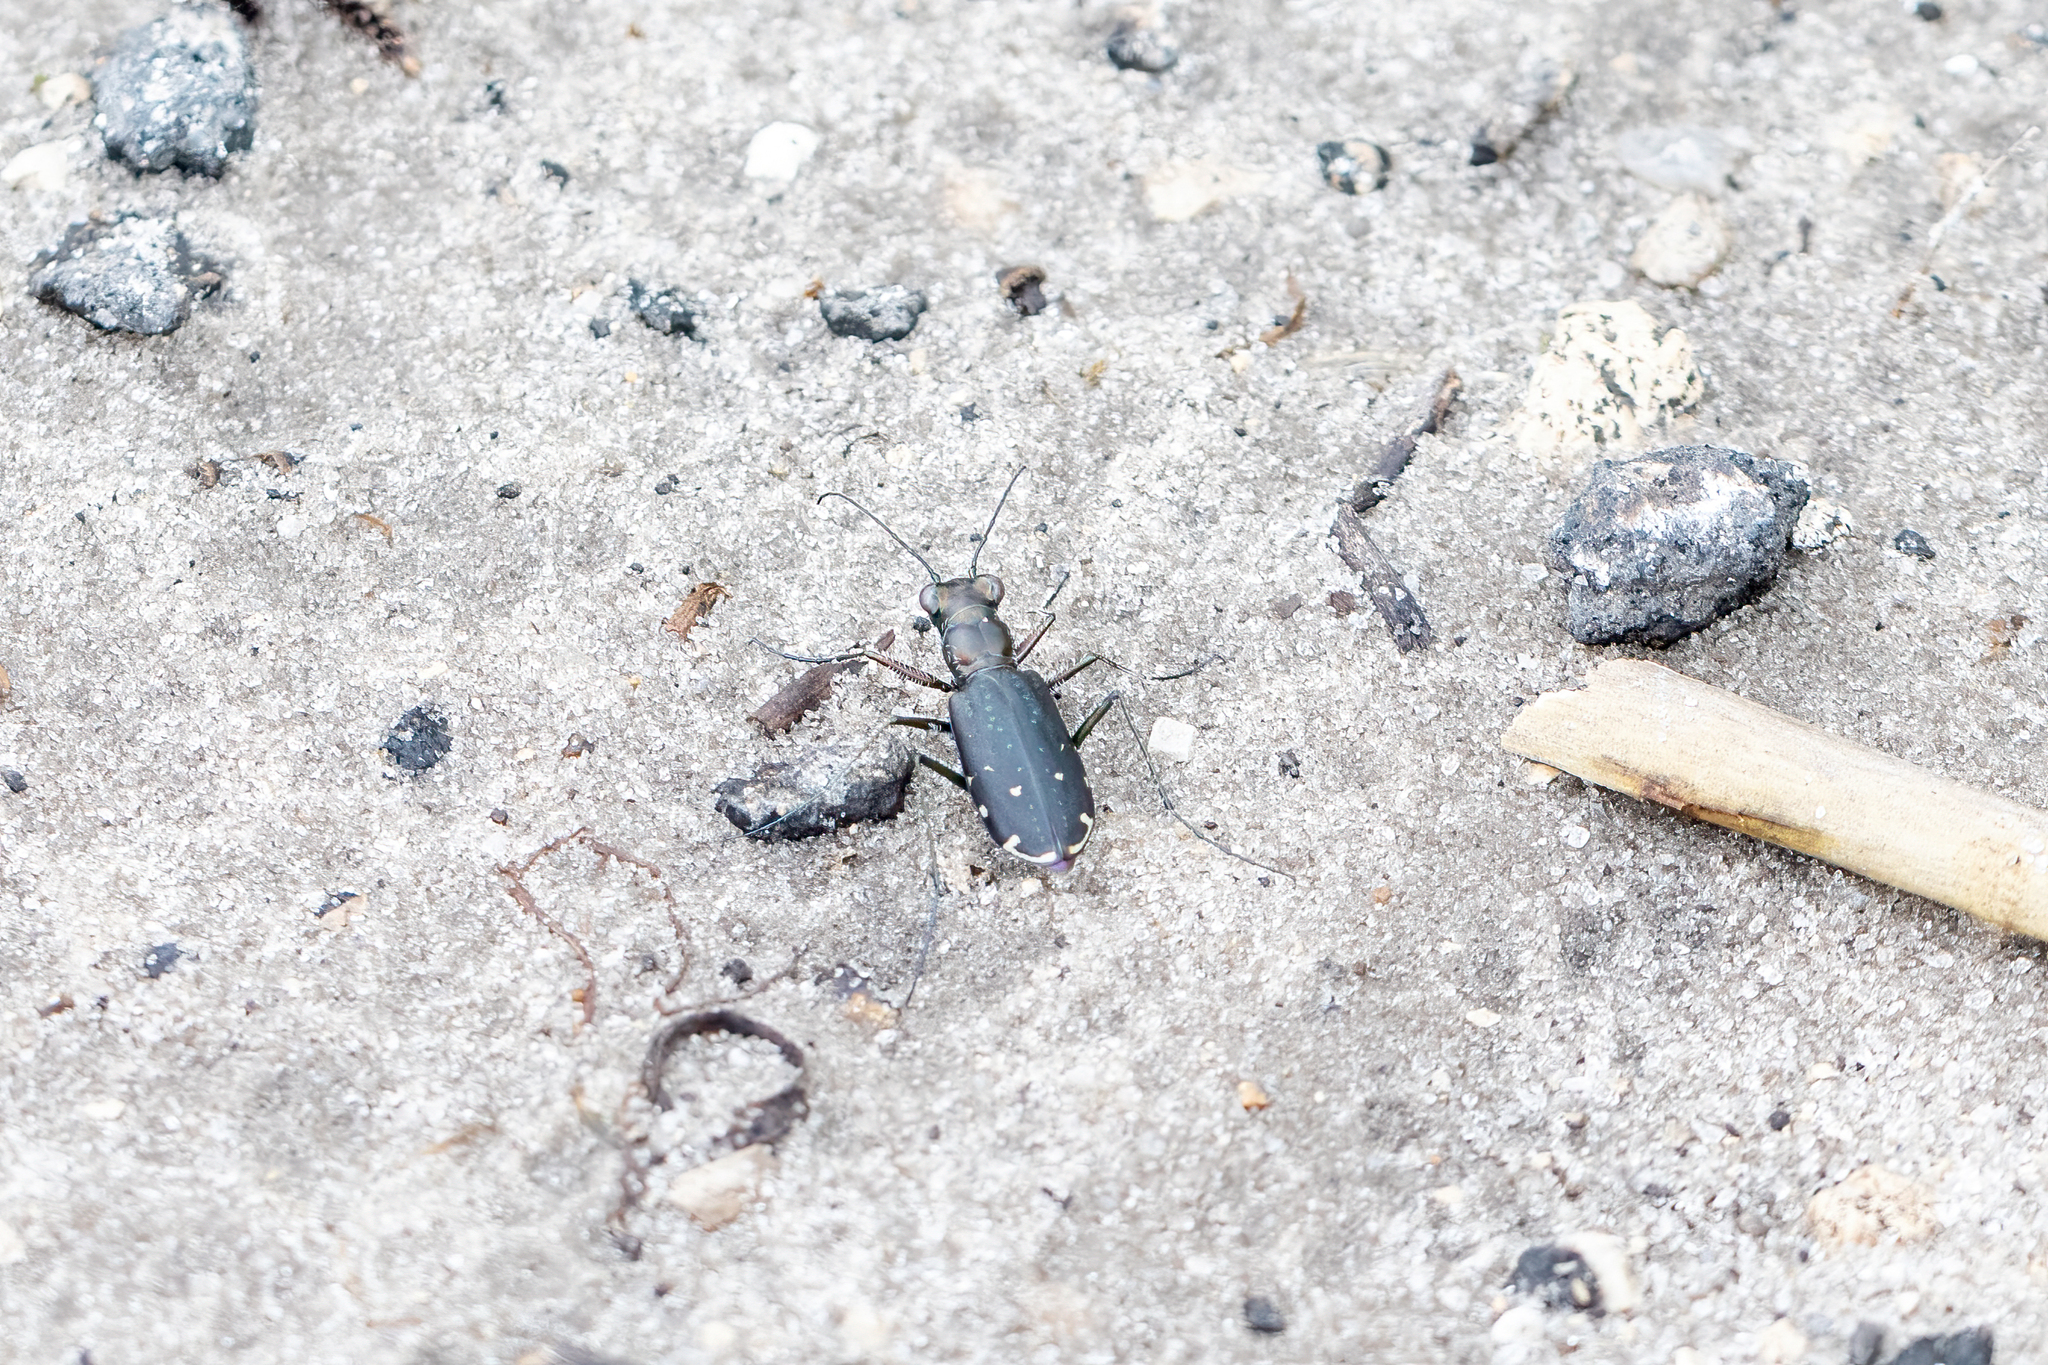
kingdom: Animalia
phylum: Arthropoda
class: Insecta
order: Coleoptera
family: Carabidae
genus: Cicindela
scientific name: Cicindela punctulata
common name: Punctured tiger beetle
